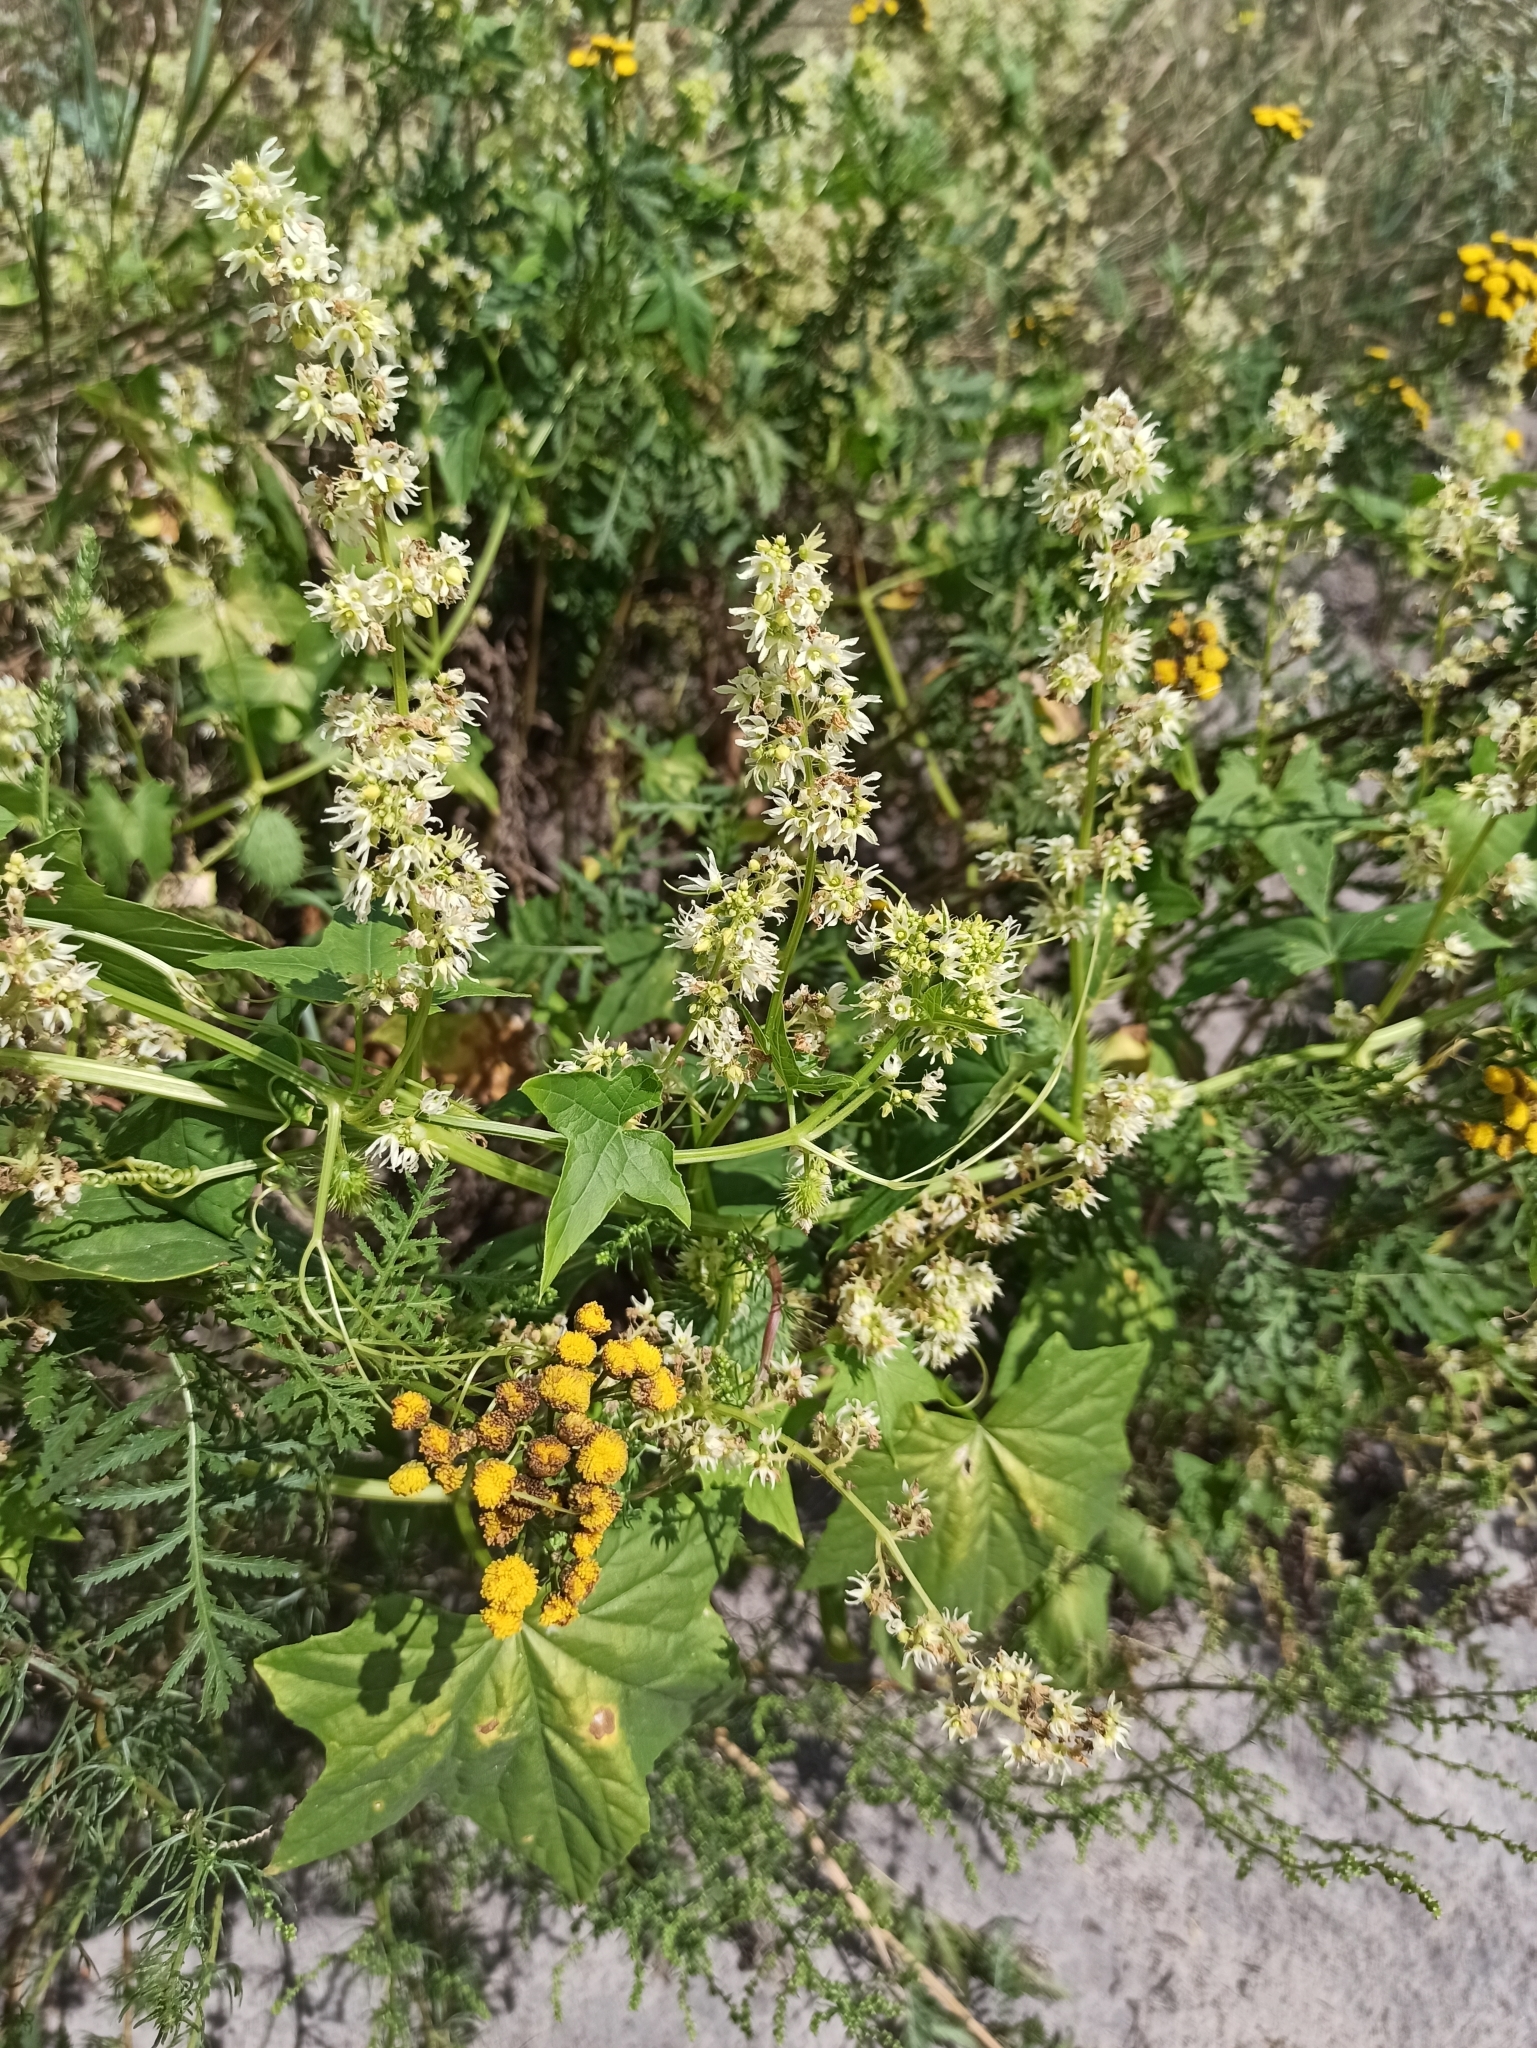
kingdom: Plantae
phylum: Tracheophyta
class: Magnoliopsida
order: Cucurbitales
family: Cucurbitaceae
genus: Echinocystis
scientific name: Echinocystis lobata
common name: Wild cucumber
